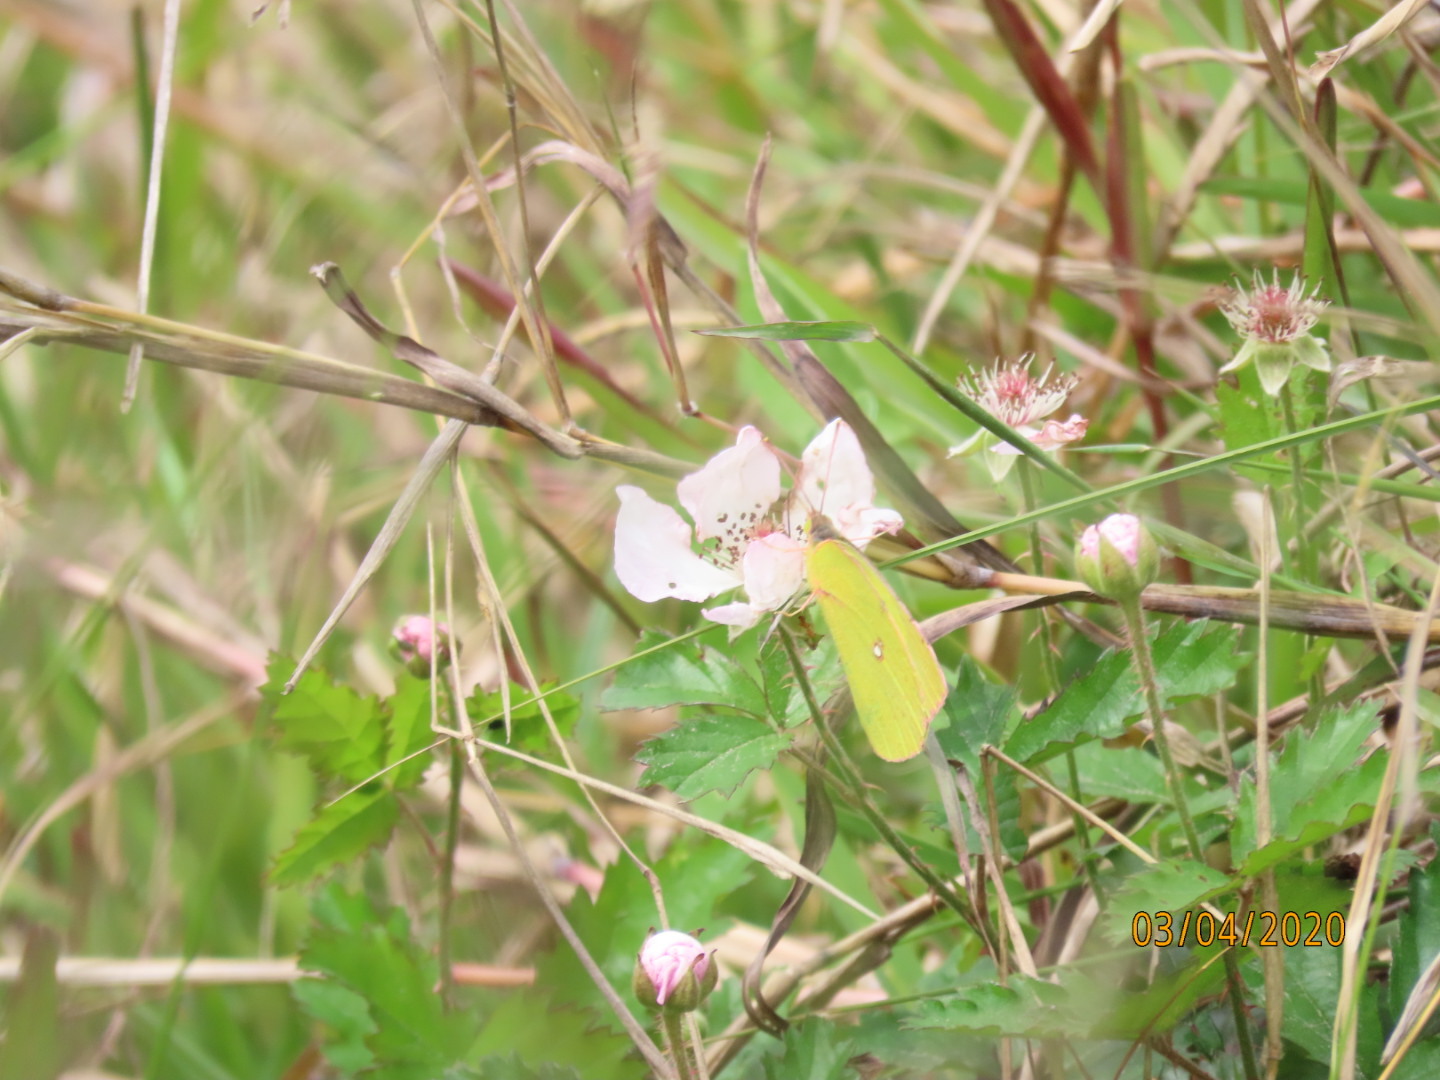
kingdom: Animalia
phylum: Arthropoda
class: Insecta
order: Lepidoptera
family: Pieridae
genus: Zerene
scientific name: Zerene cesonia
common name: Southern dogface
